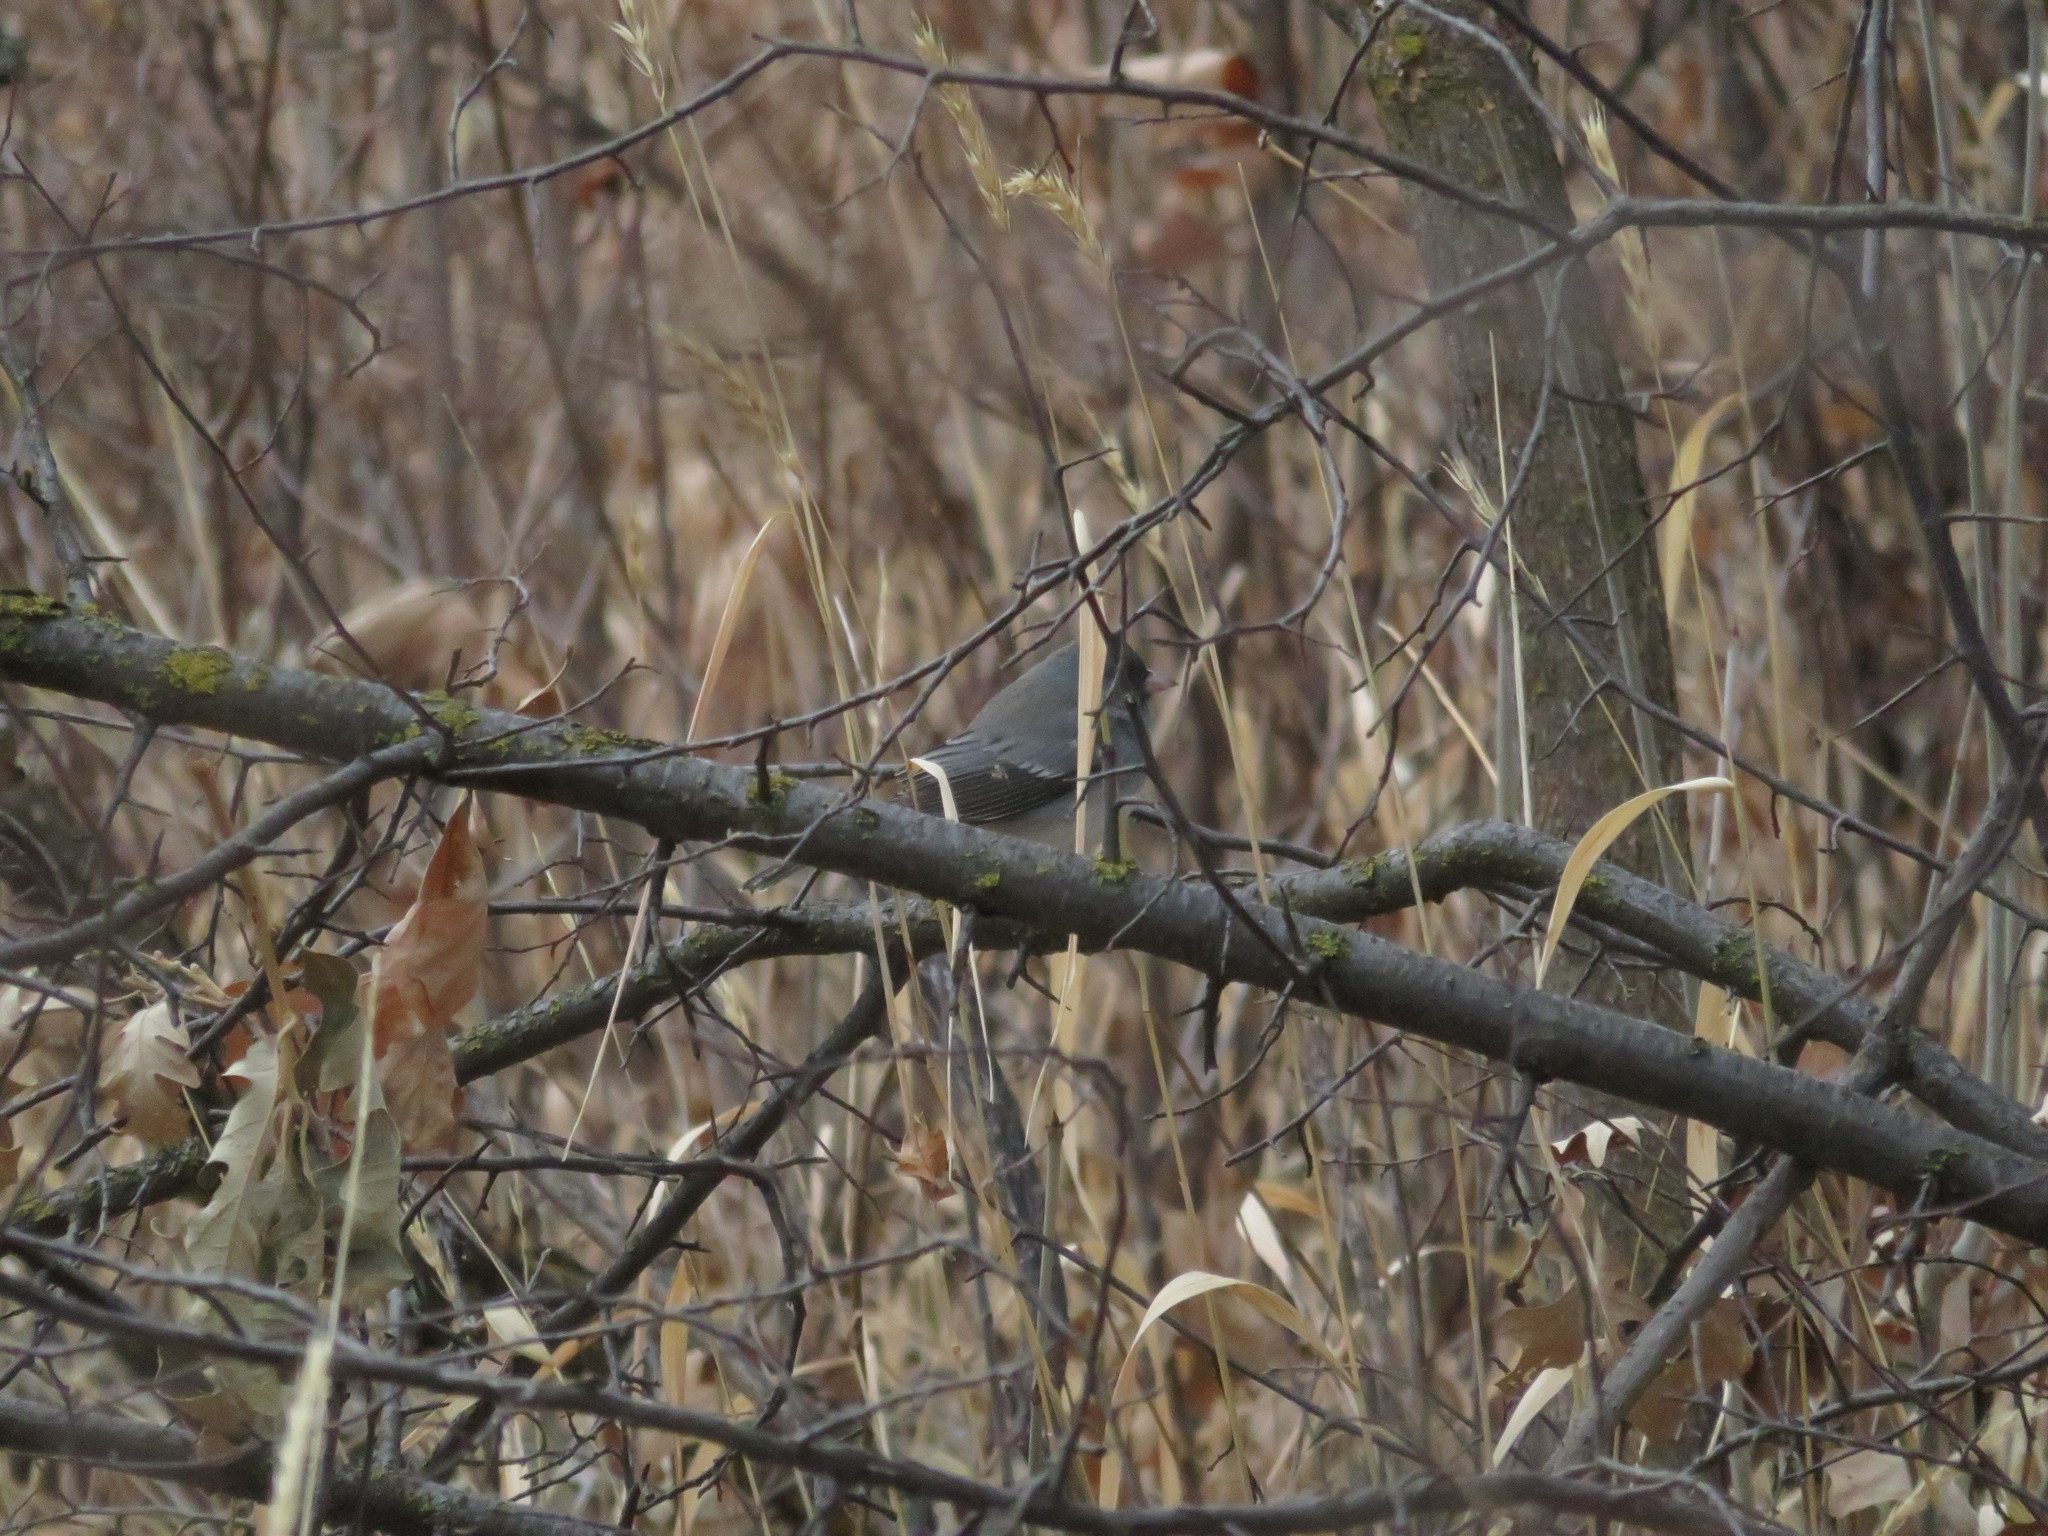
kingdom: Animalia
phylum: Chordata
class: Aves
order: Passeriformes
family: Passerellidae
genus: Junco
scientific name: Junco hyemalis
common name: Dark-eyed junco
